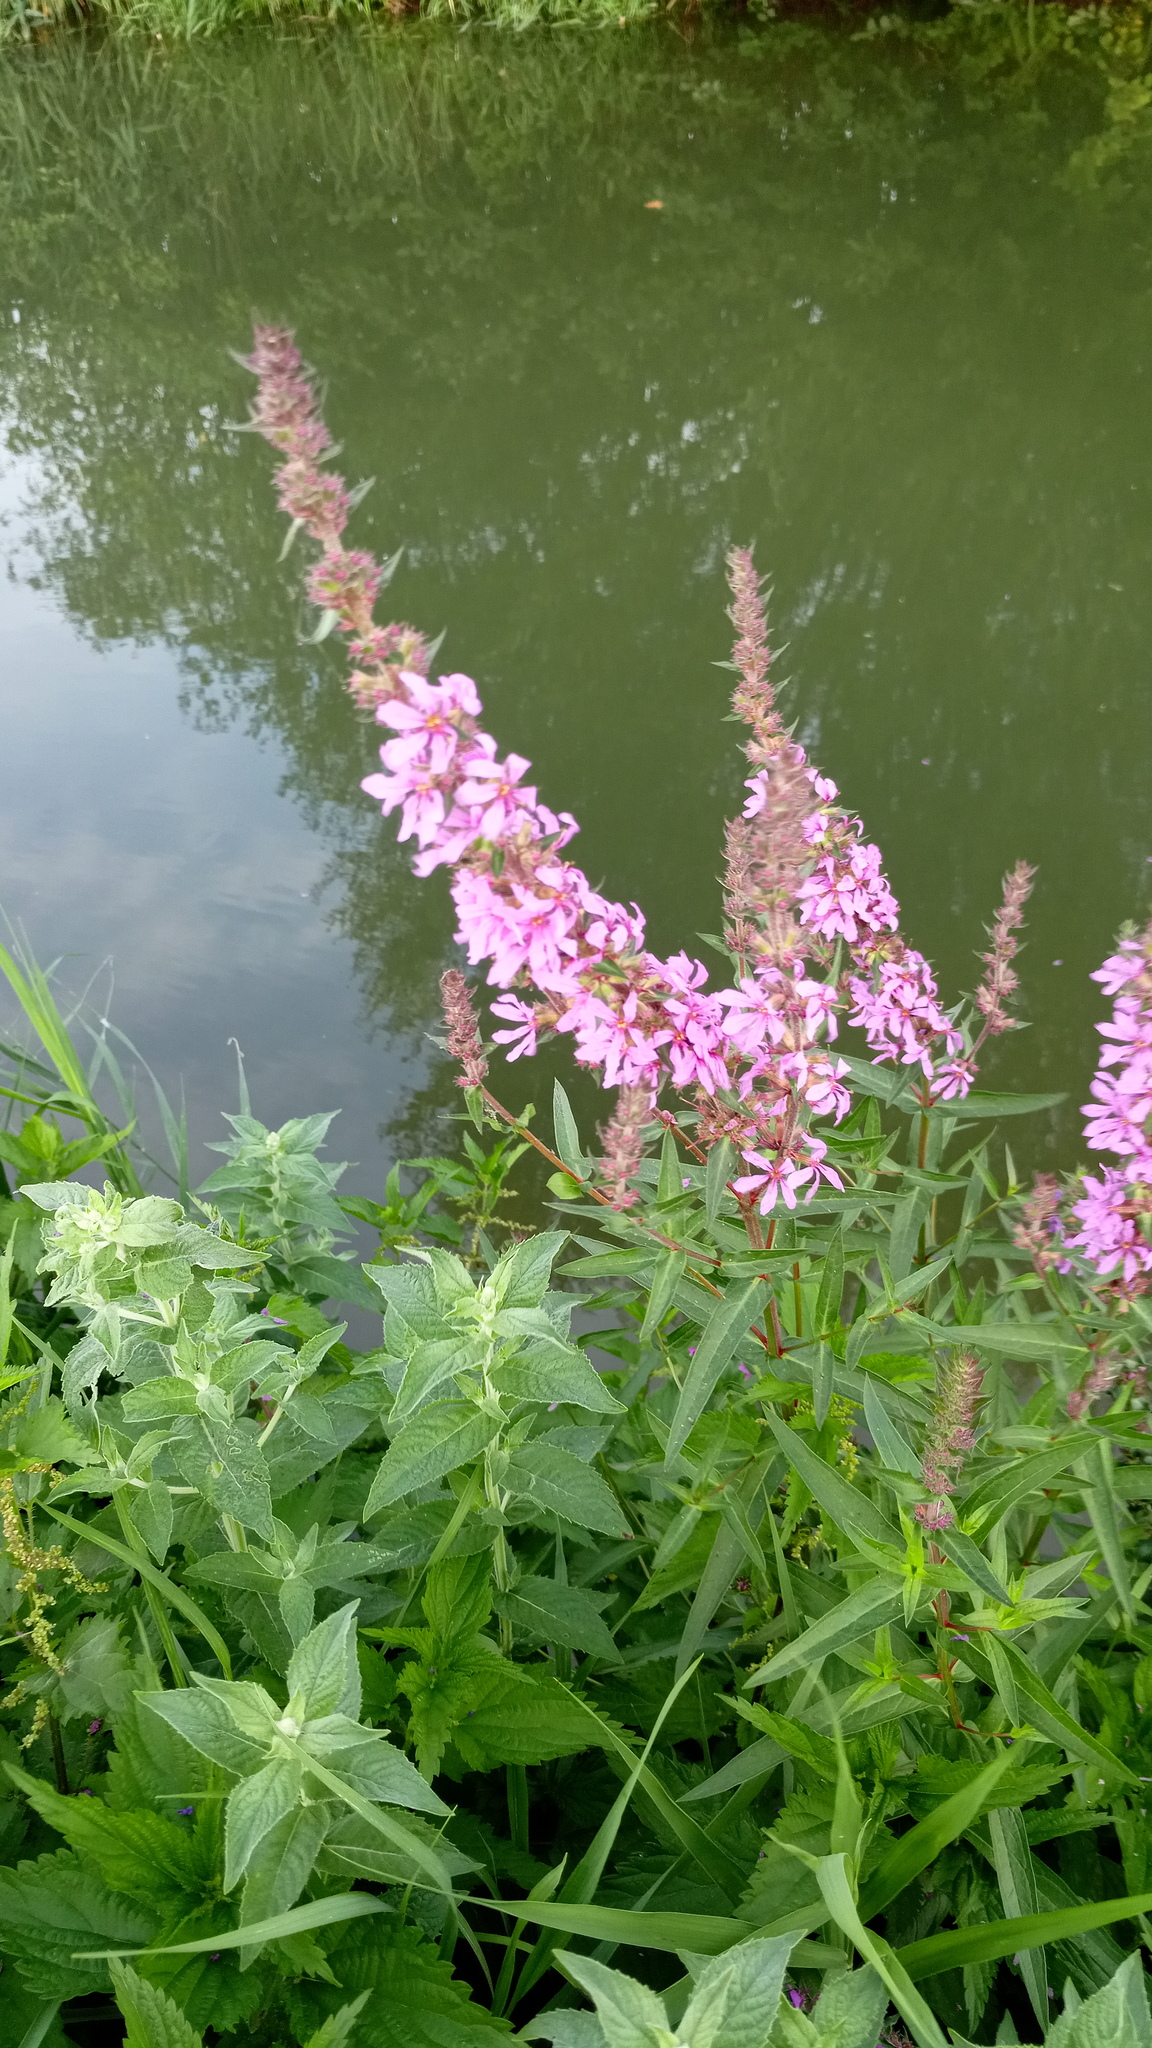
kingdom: Plantae
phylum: Tracheophyta
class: Magnoliopsida
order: Myrtales
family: Lythraceae
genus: Lythrum
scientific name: Lythrum salicaria
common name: Purple loosestrife
